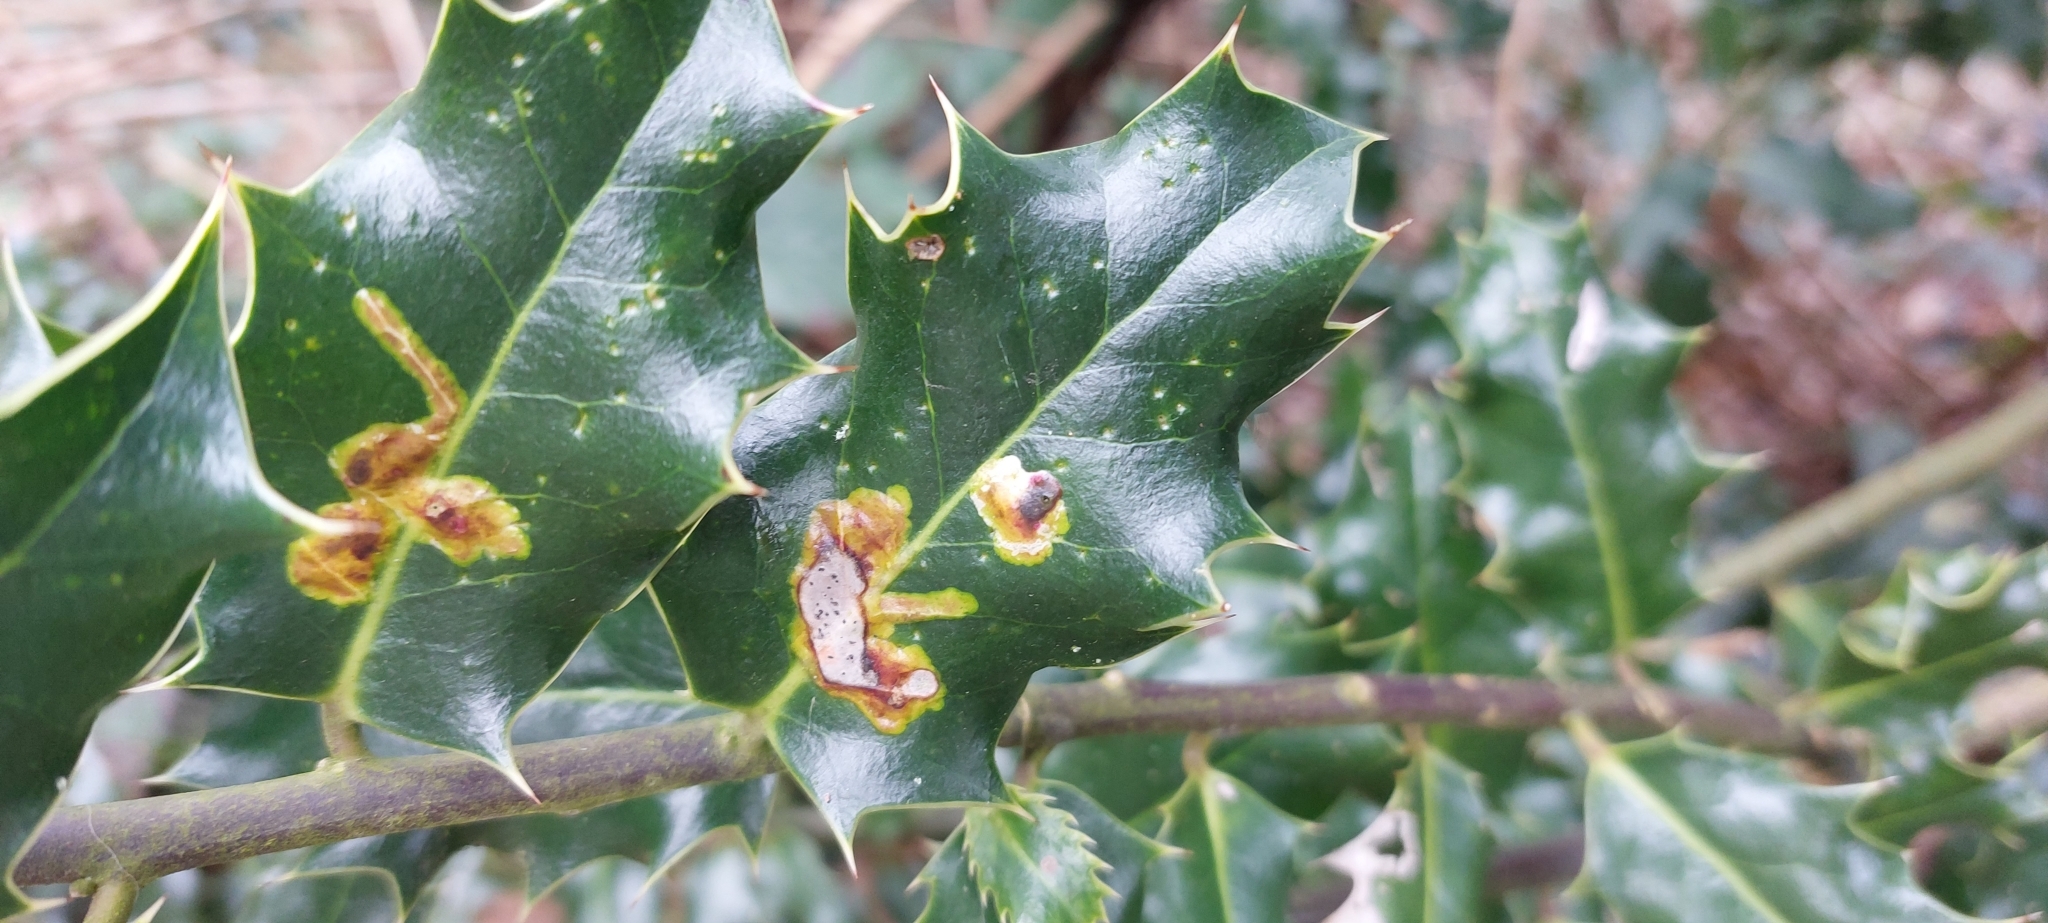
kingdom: Animalia
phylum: Arthropoda
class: Insecta
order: Diptera
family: Agromyzidae
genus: Phytomyza
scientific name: Phytomyza ilicis
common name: Holly leafminer
